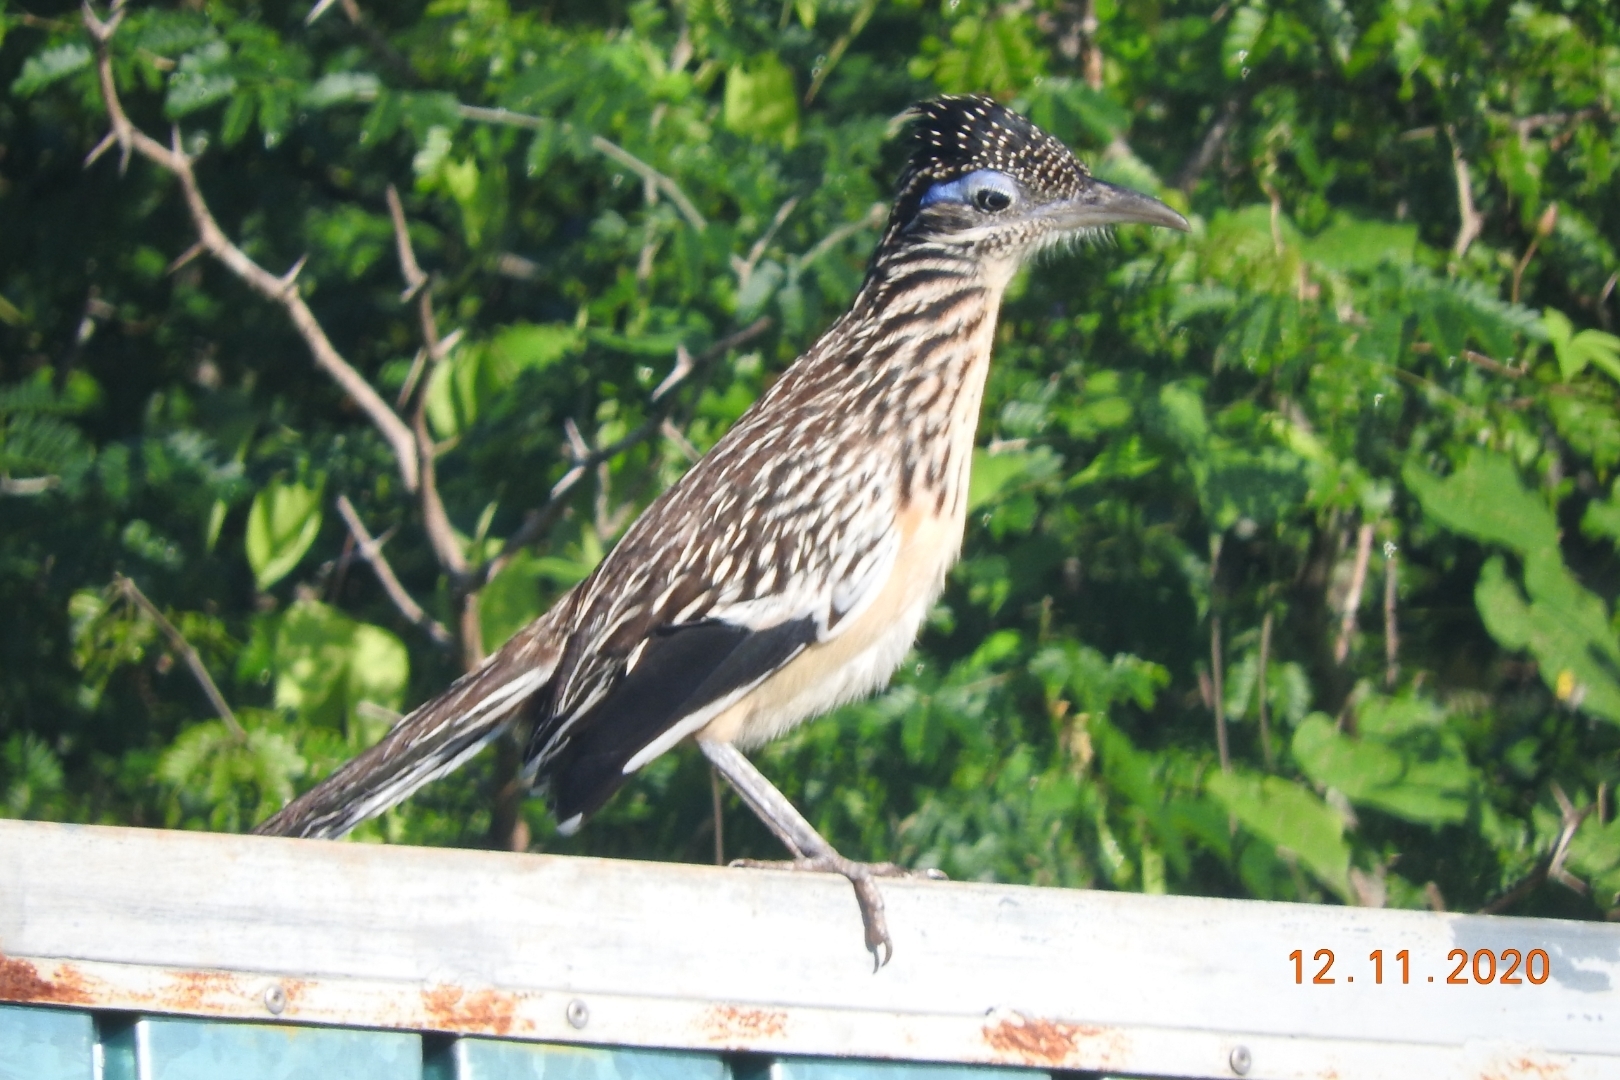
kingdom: Animalia
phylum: Chordata
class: Aves
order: Cuculiformes
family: Cuculidae
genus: Geococcyx
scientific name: Geococcyx velox
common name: Lesser roadrunner
